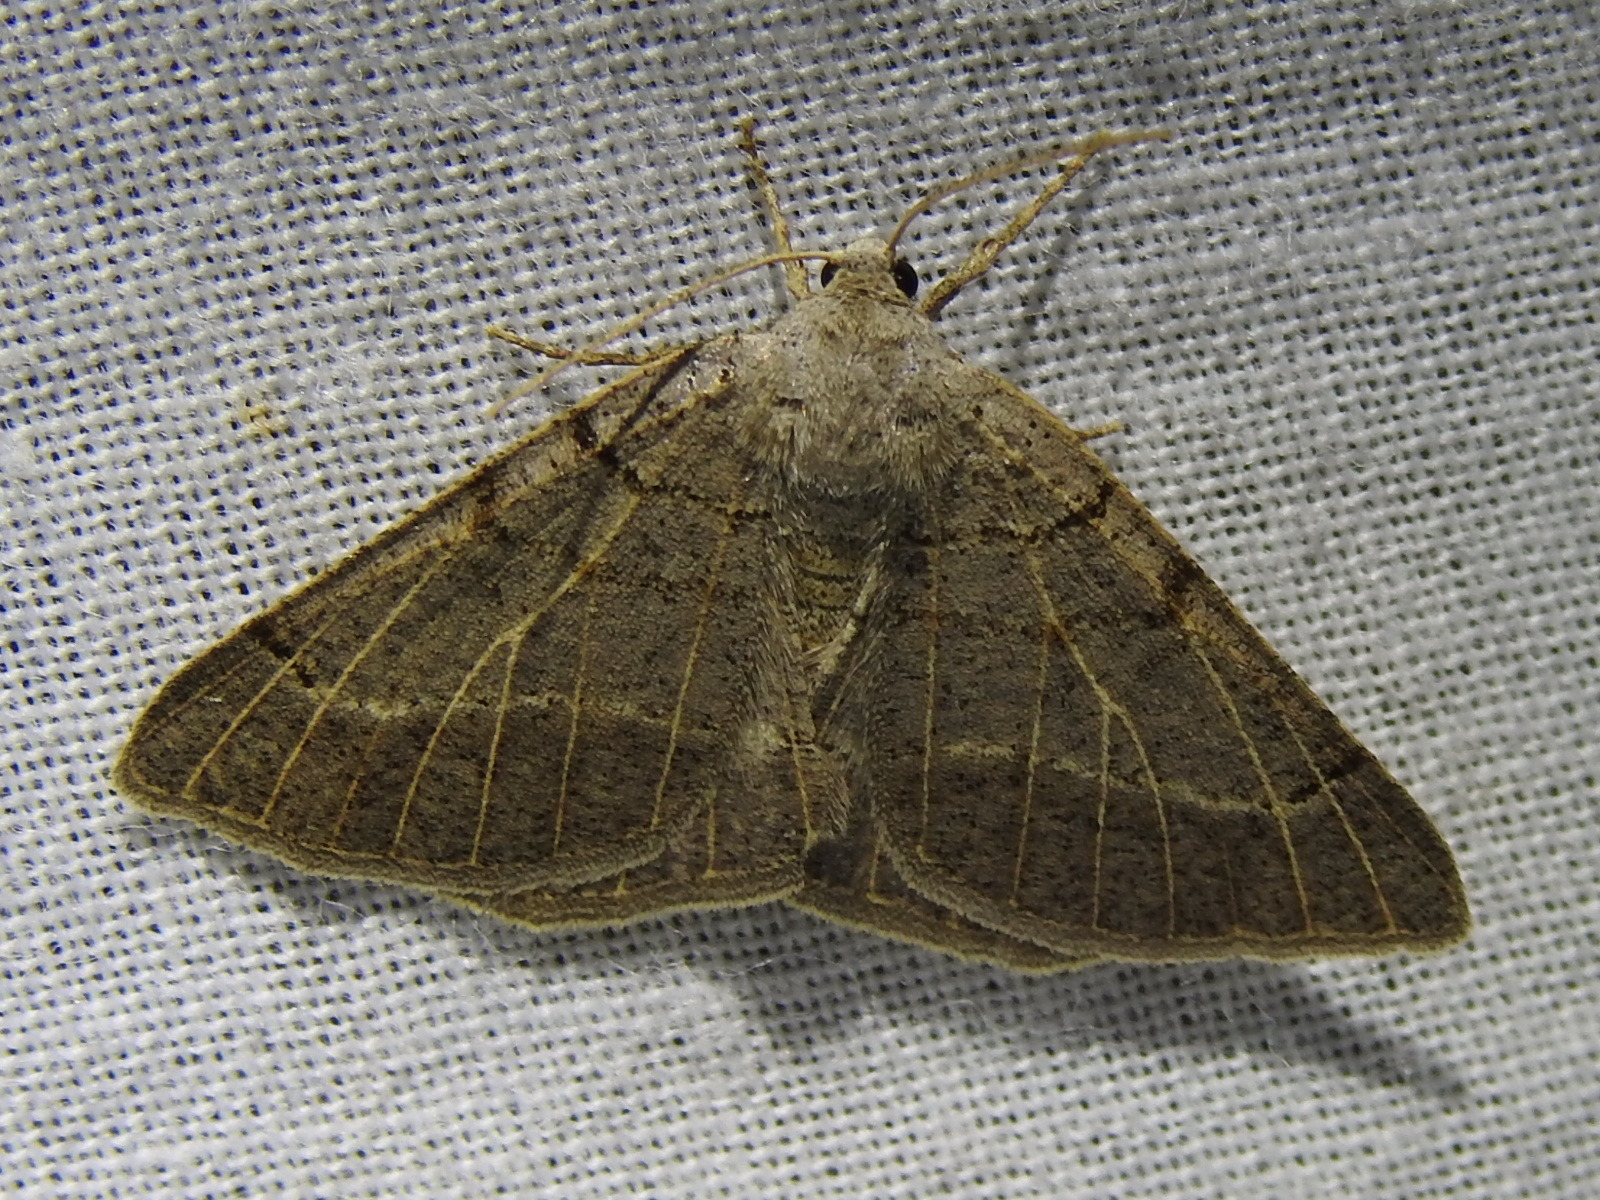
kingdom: Animalia
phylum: Arthropoda
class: Insecta
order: Lepidoptera
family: Geometridae
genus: Isturgia
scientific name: Isturgia dislocaria
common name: Pale-viened enconista
